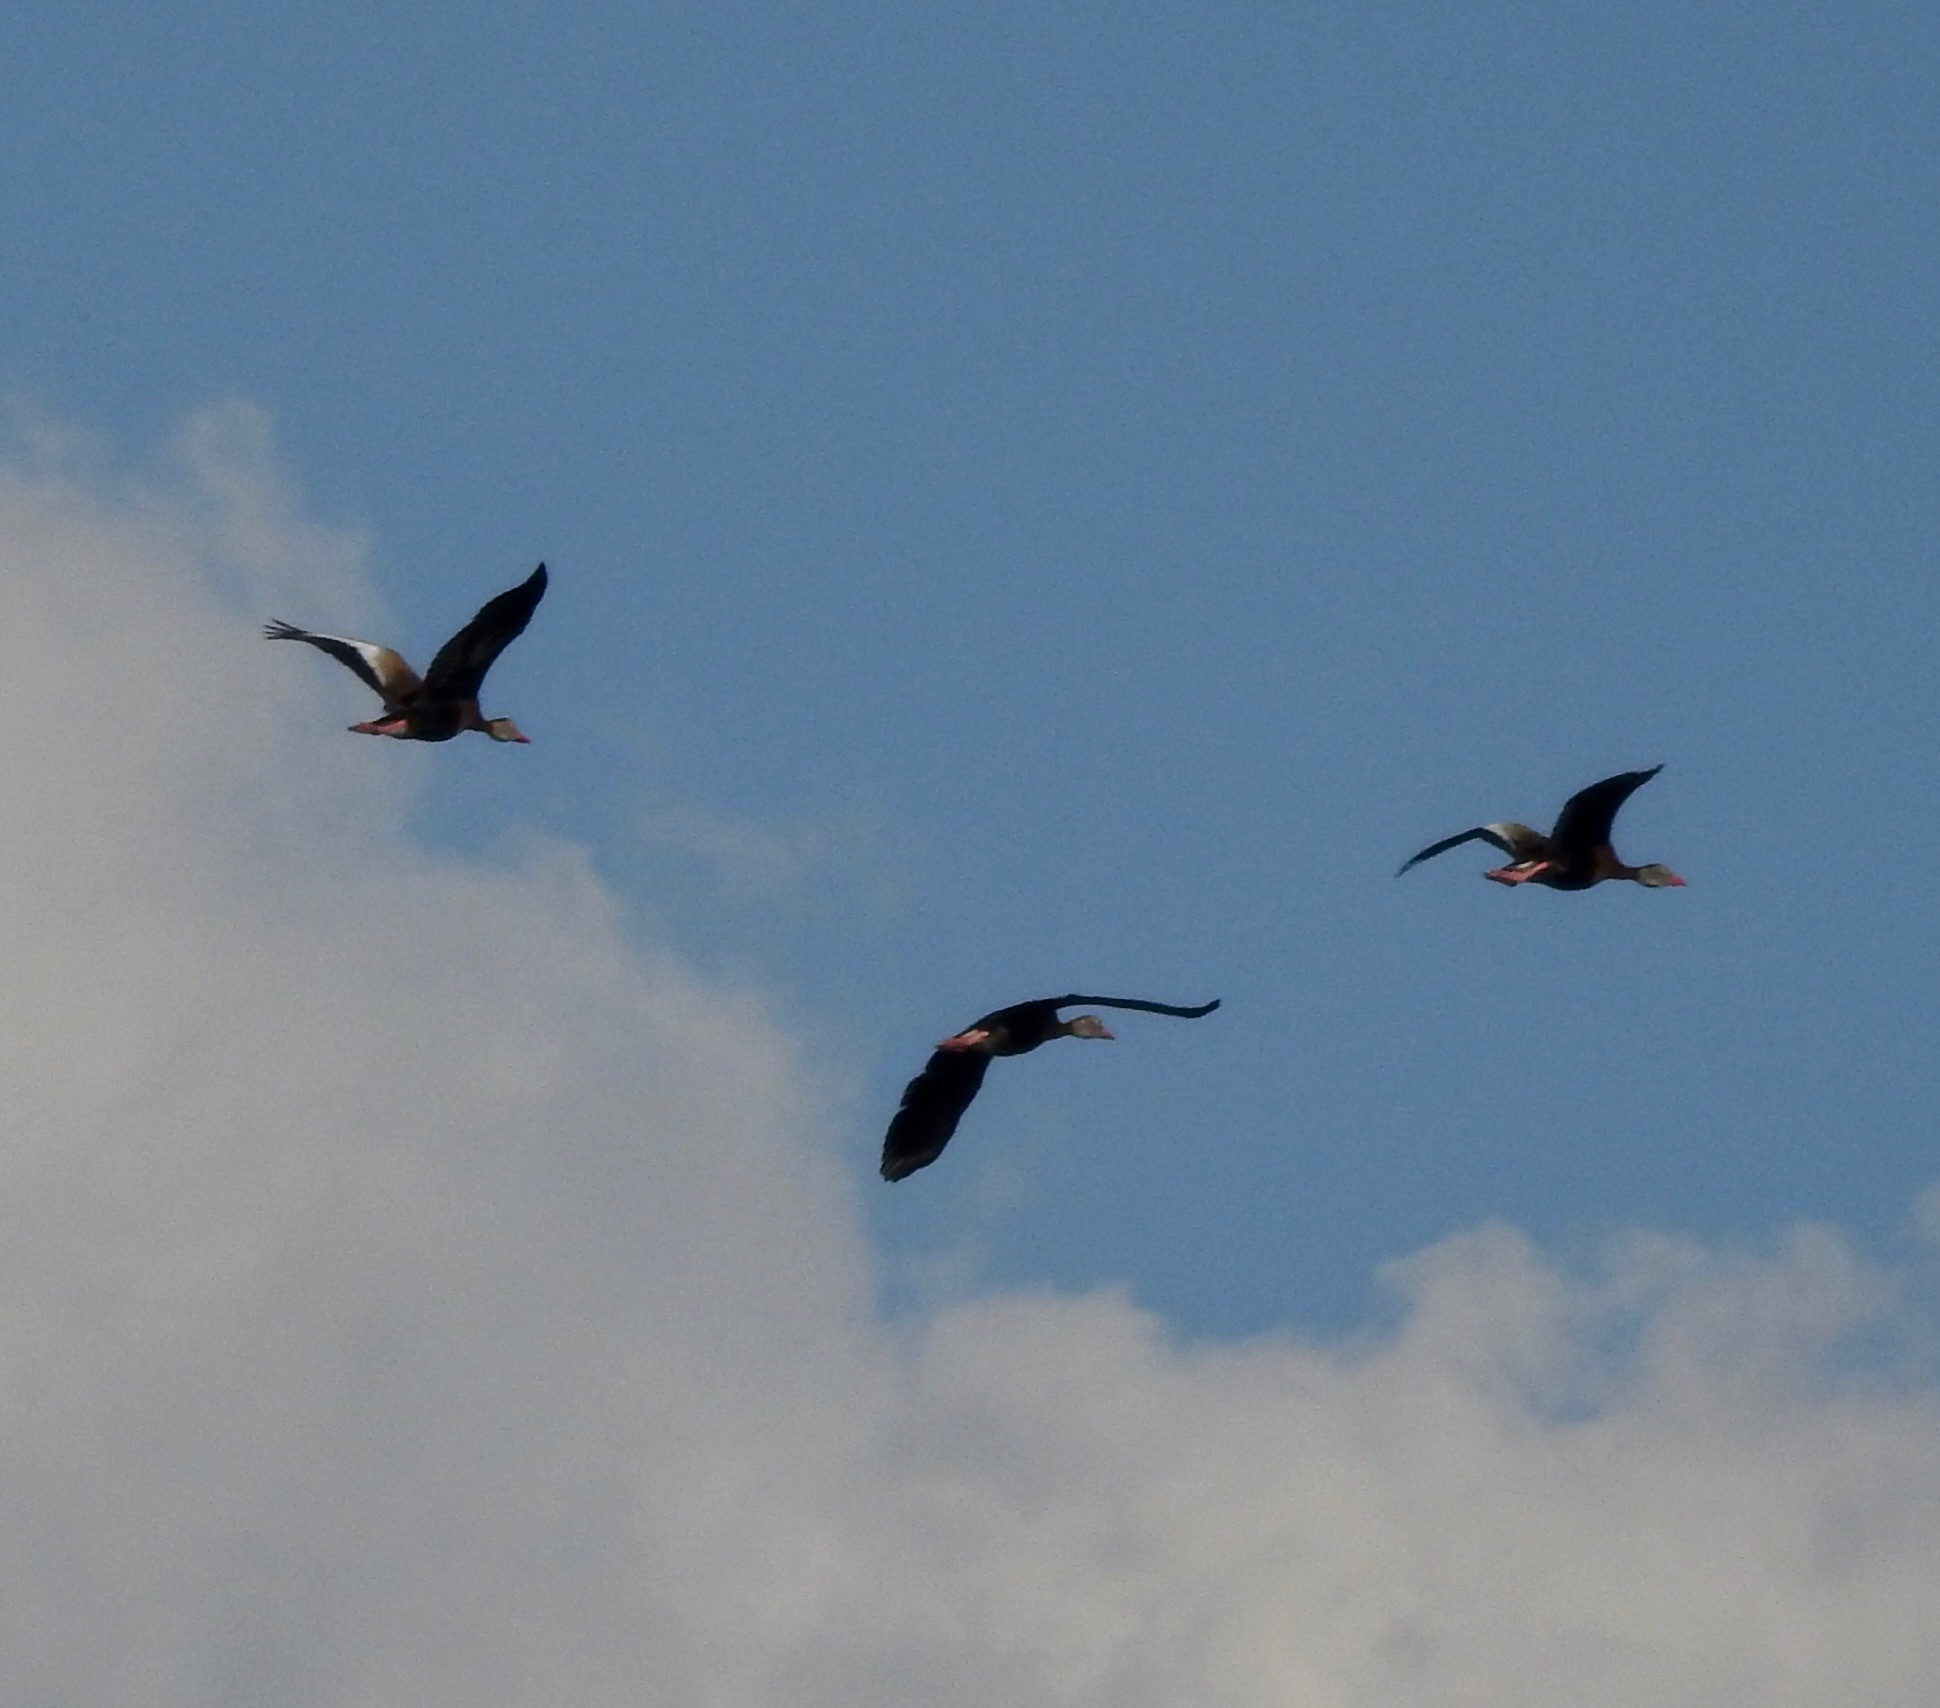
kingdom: Animalia
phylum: Chordata
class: Aves
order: Anseriformes
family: Anatidae
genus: Dendrocygna
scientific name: Dendrocygna autumnalis
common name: Black-bellied whistling duck
